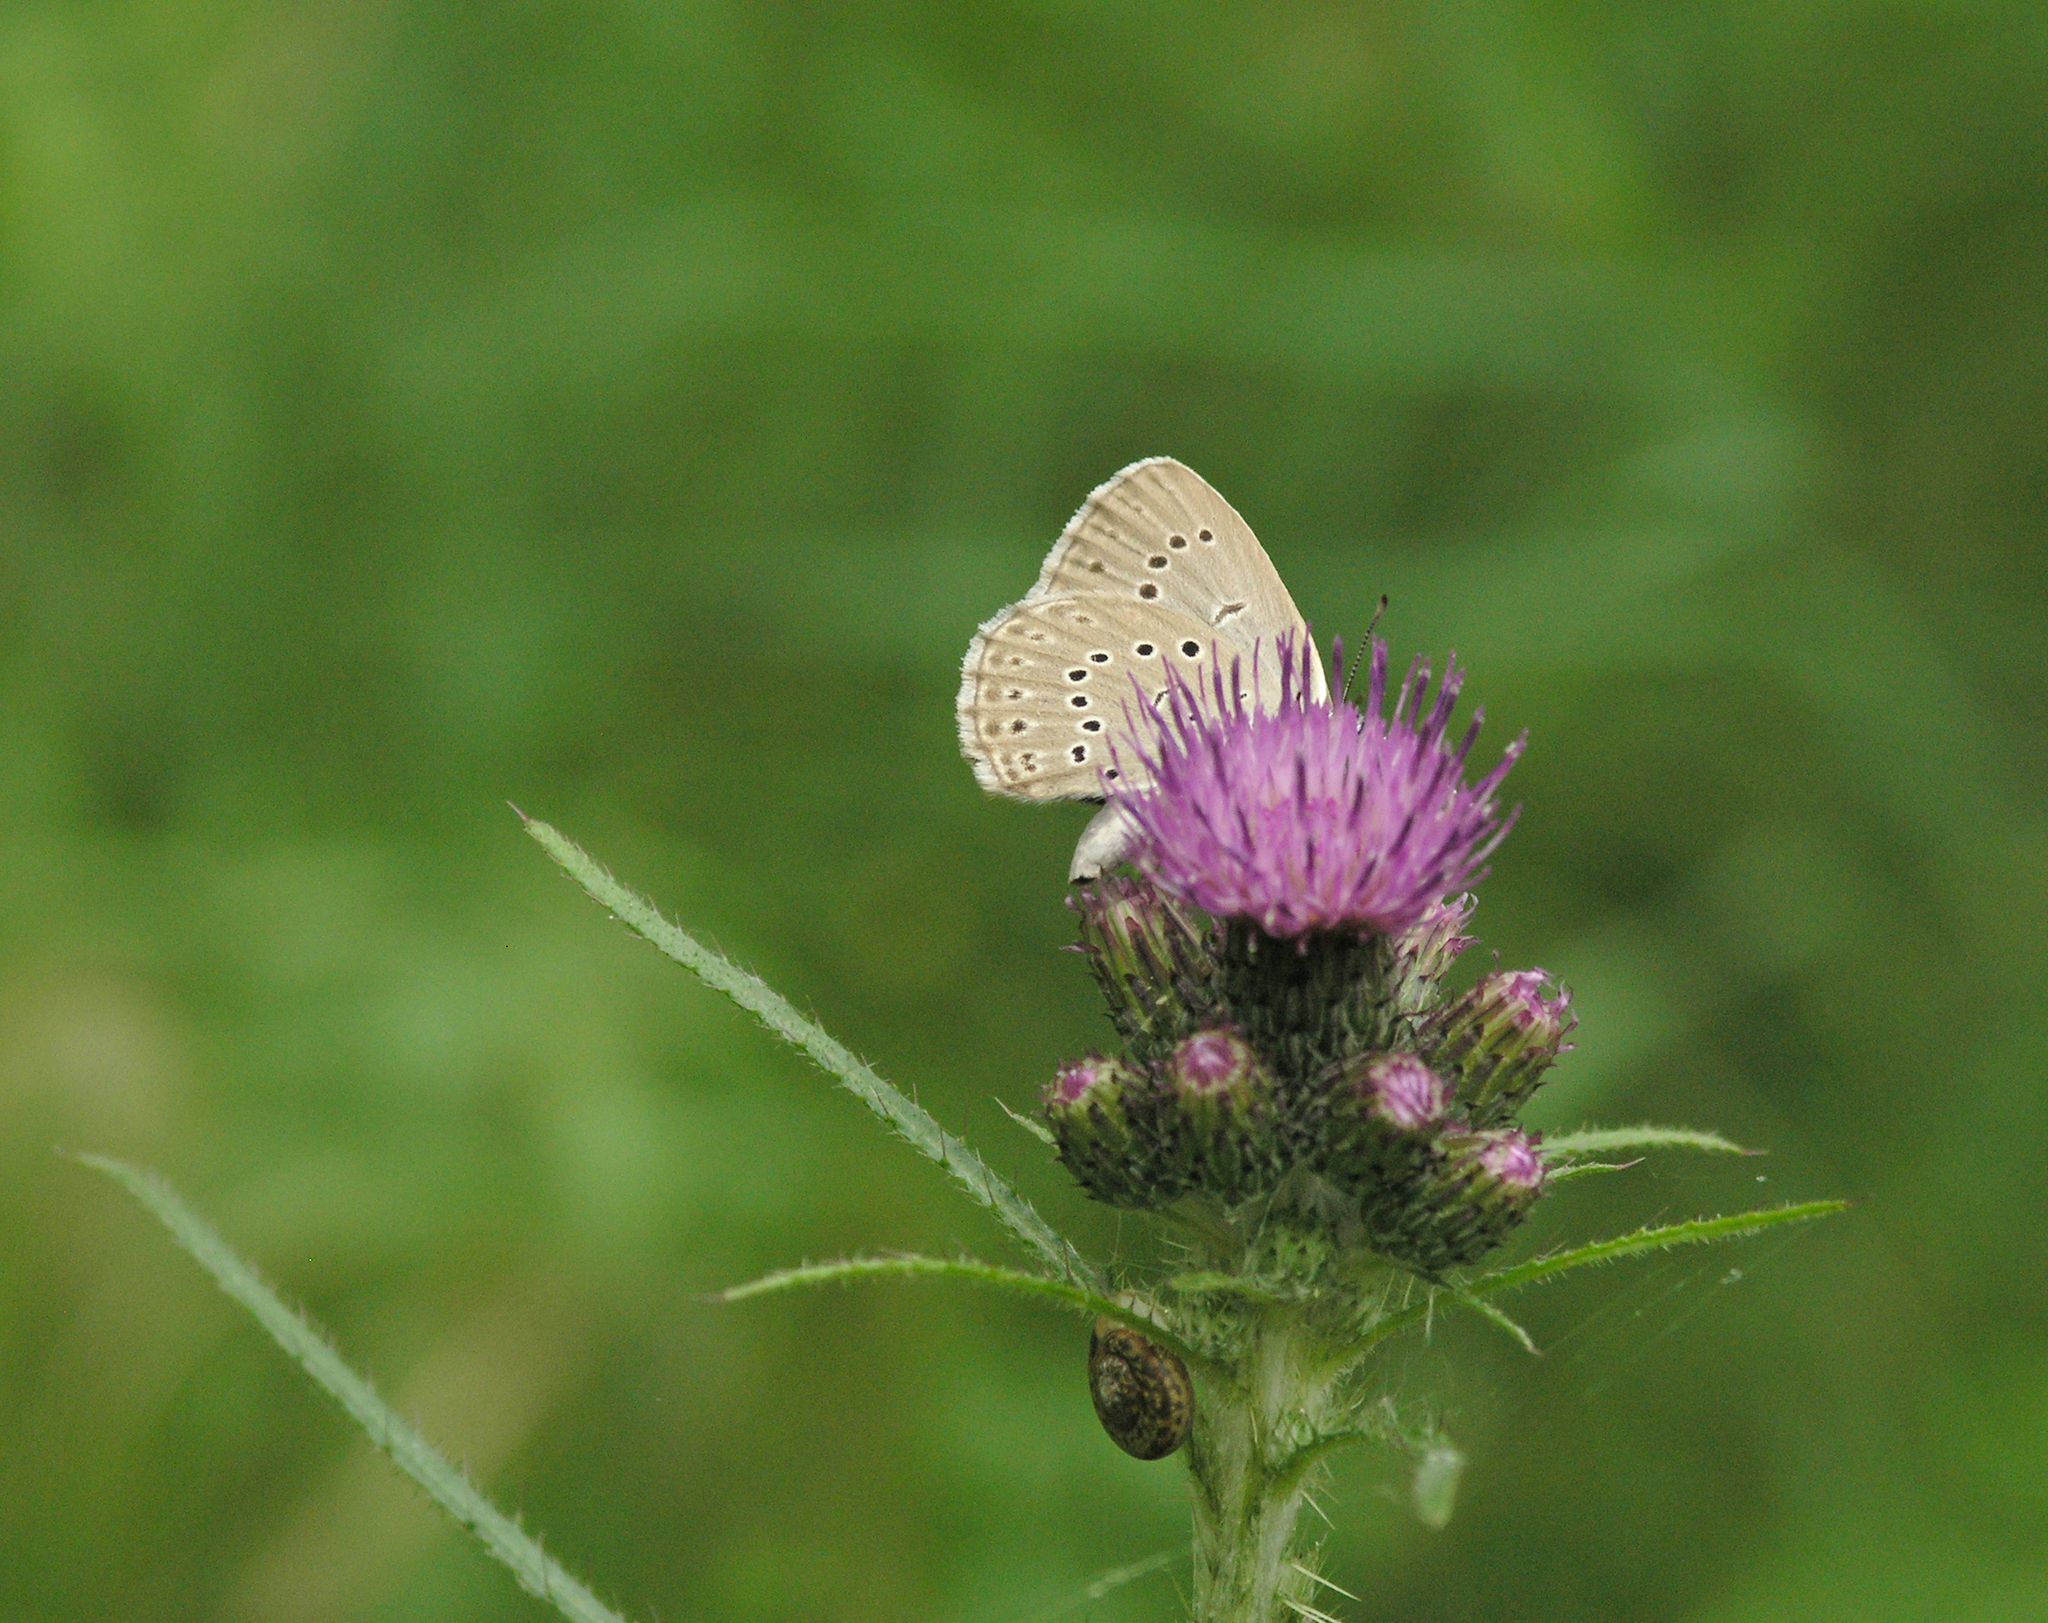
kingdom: Plantae
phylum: Tracheophyta
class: Magnoliopsida
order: Asterales
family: Asteraceae
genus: Cirsium
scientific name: Cirsium palustre
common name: Marsh thistle
